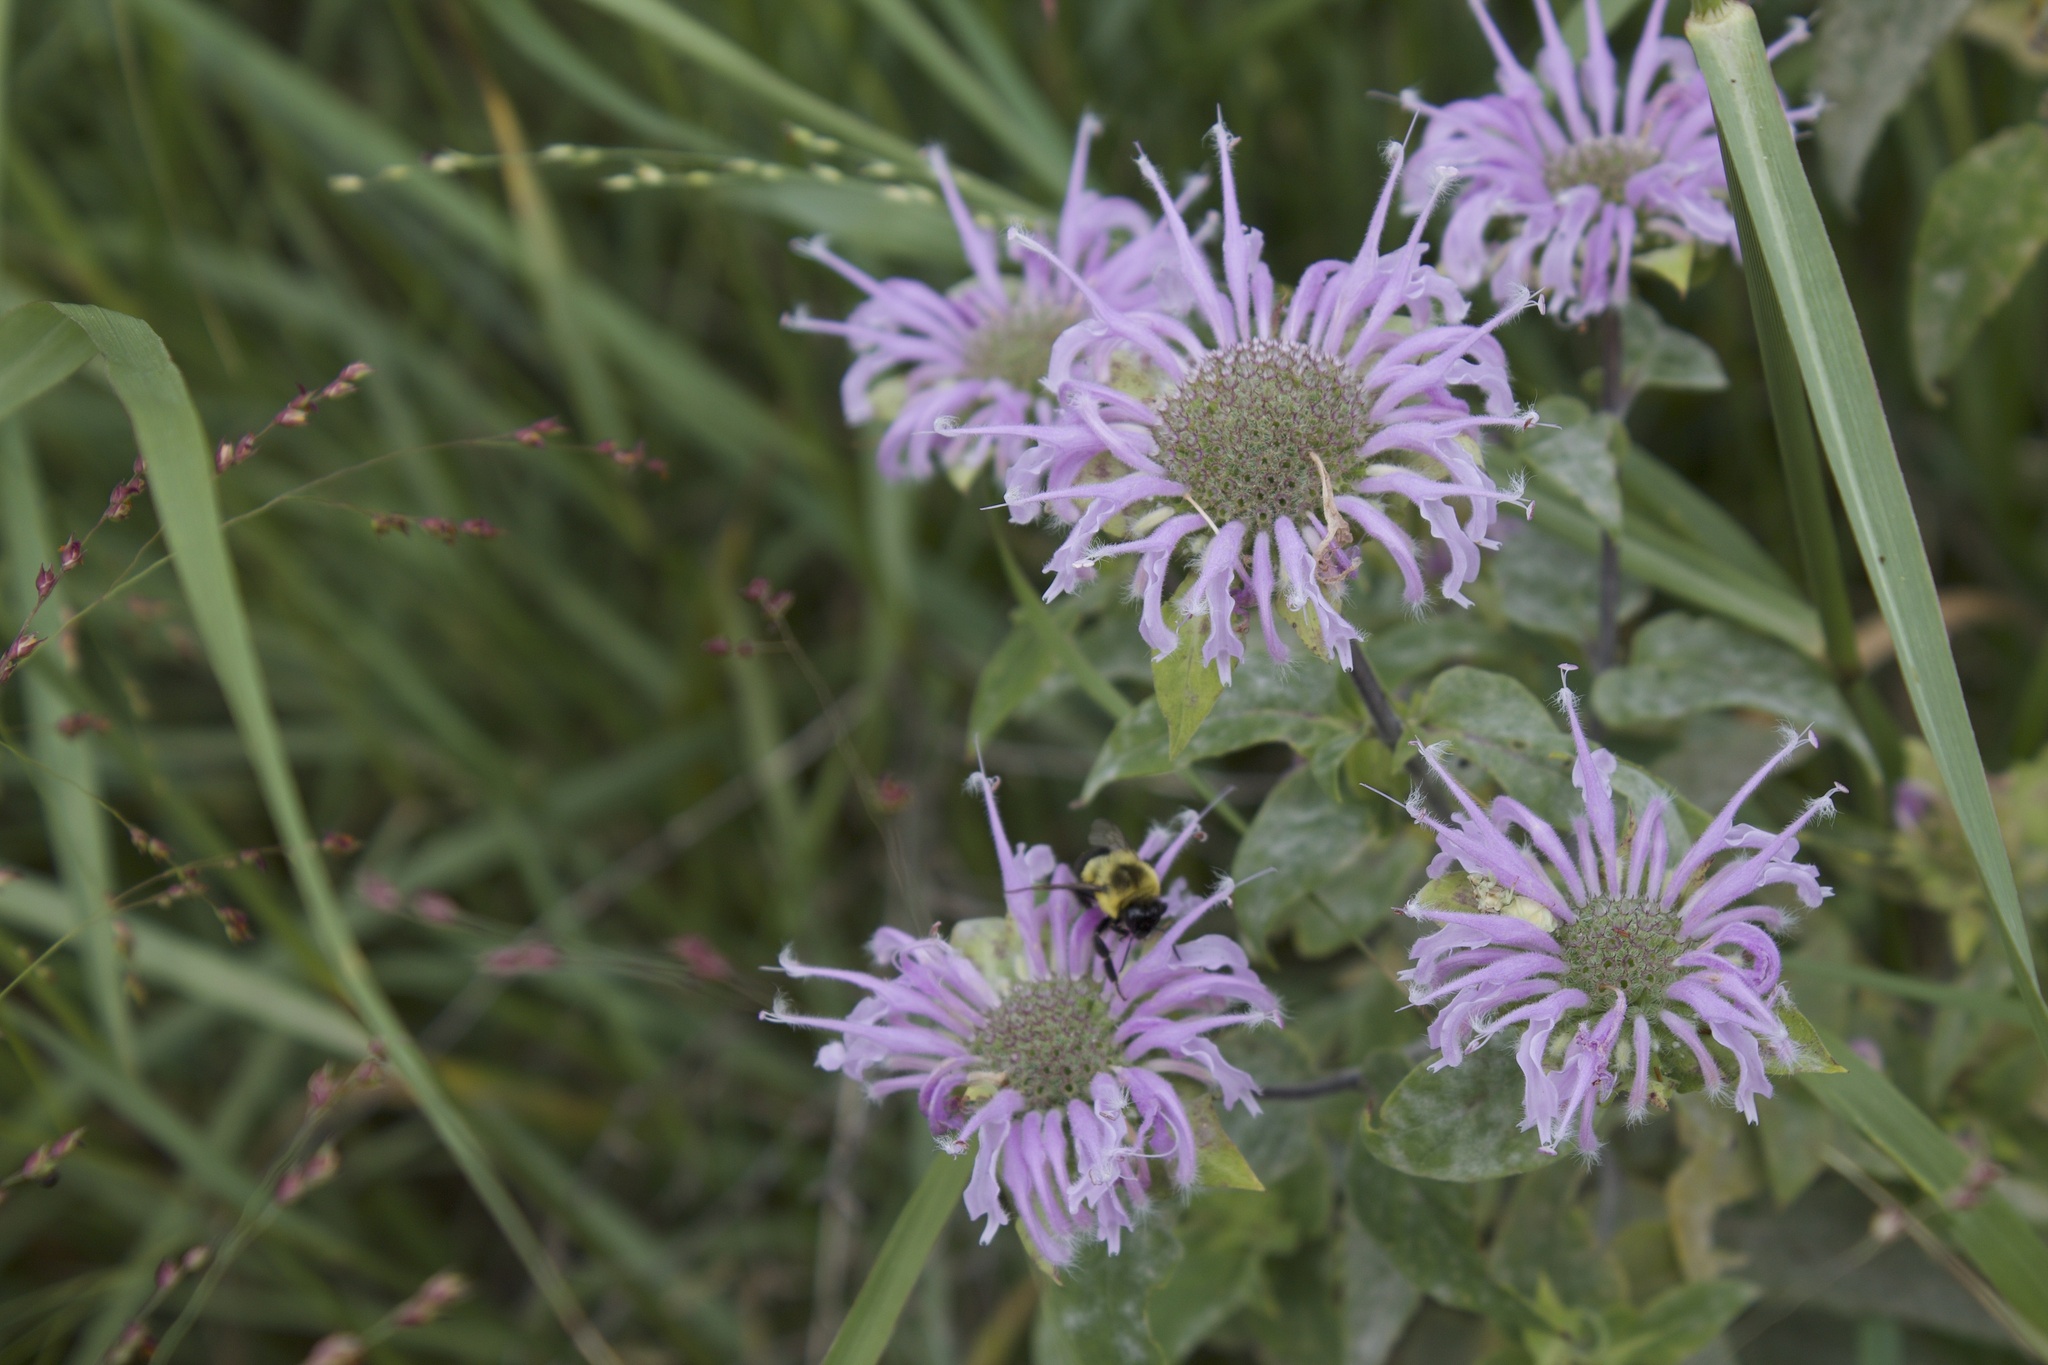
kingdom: Animalia
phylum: Arthropoda
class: Insecta
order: Hymenoptera
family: Apidae
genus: Bombus
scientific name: Bombus impatiens
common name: Common eastern bumble bee
